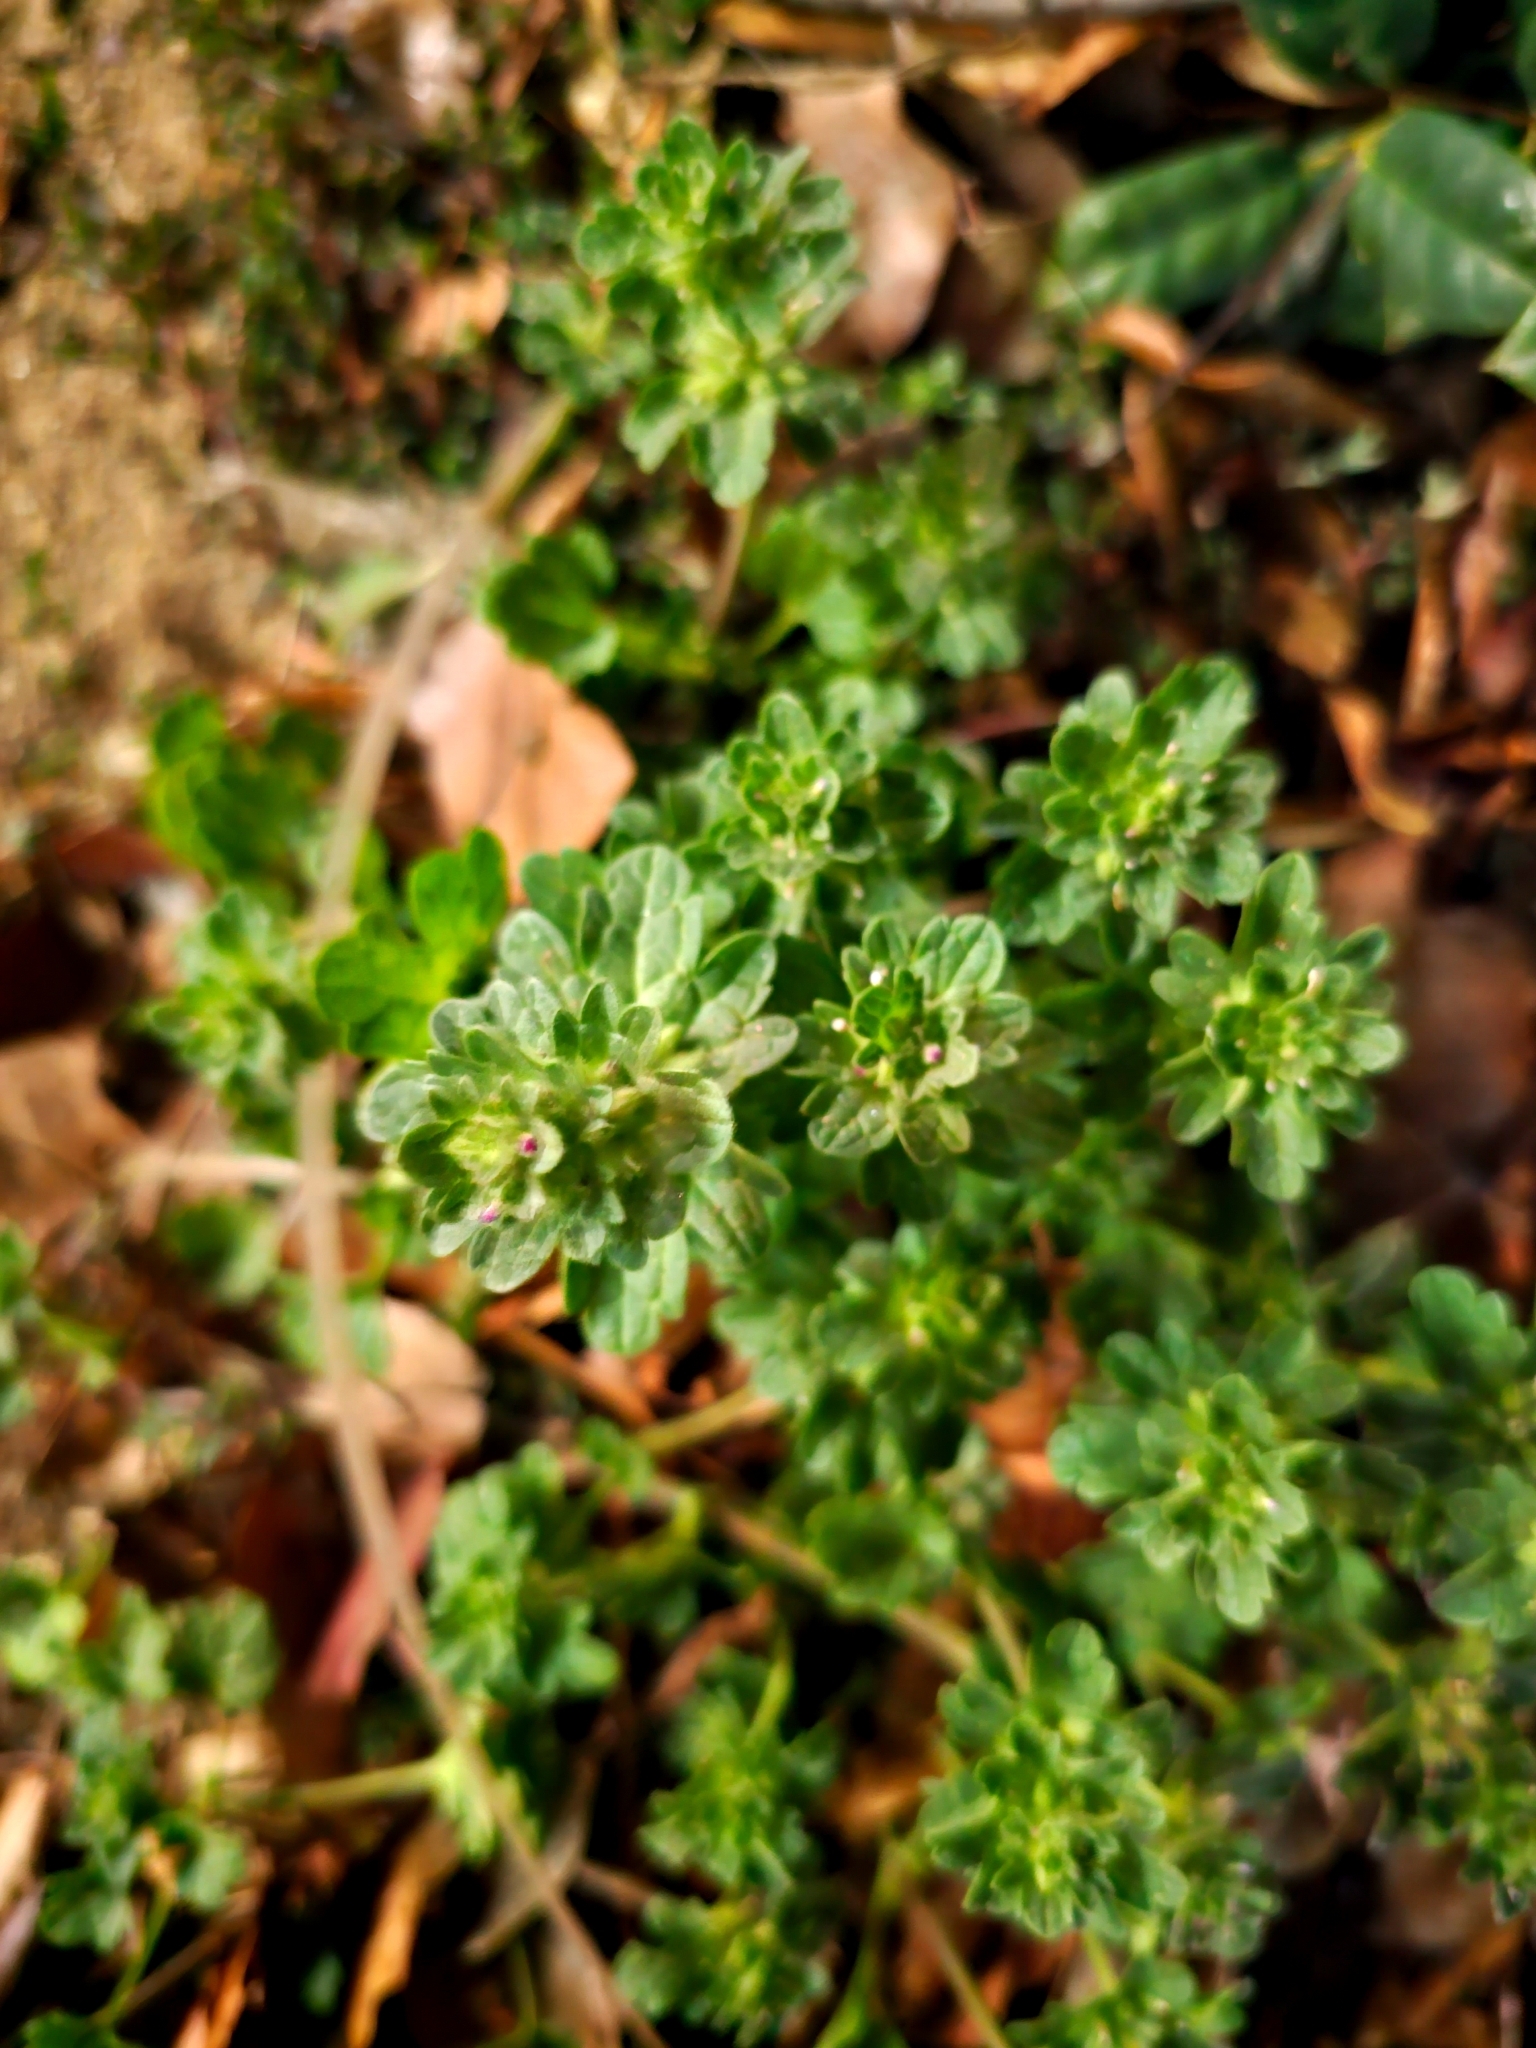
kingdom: Plantae
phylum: Tracheophyta
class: Magnoliopsida
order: Lamiales
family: Lamiaceae
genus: Lamium
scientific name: Lamium amplexicaule
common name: Henbit dead-nettle
